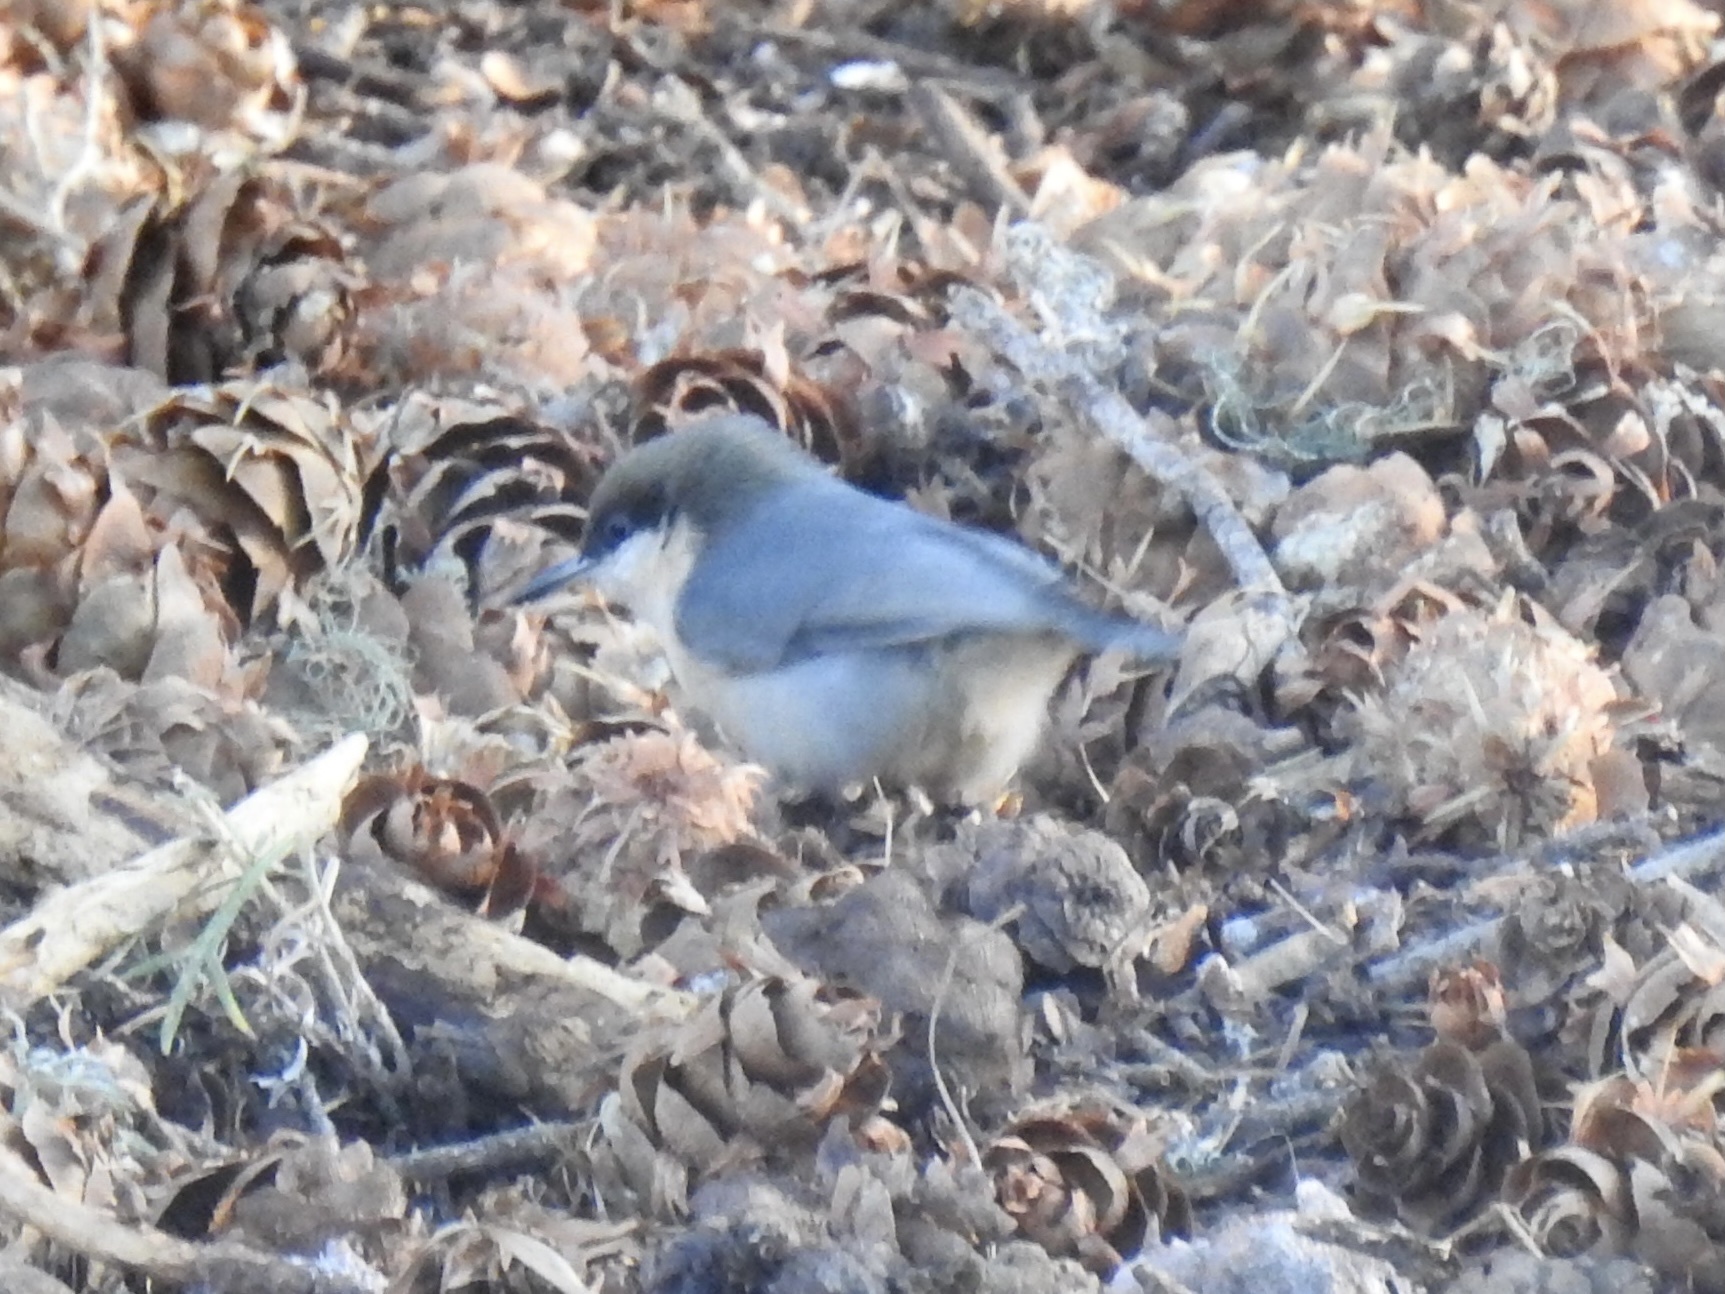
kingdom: Animalia
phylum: Chordata
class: Aves
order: Passeriformes
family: Sittidae
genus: Sitta
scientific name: Sitta pygmaea
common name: Pygmy nuthatch
